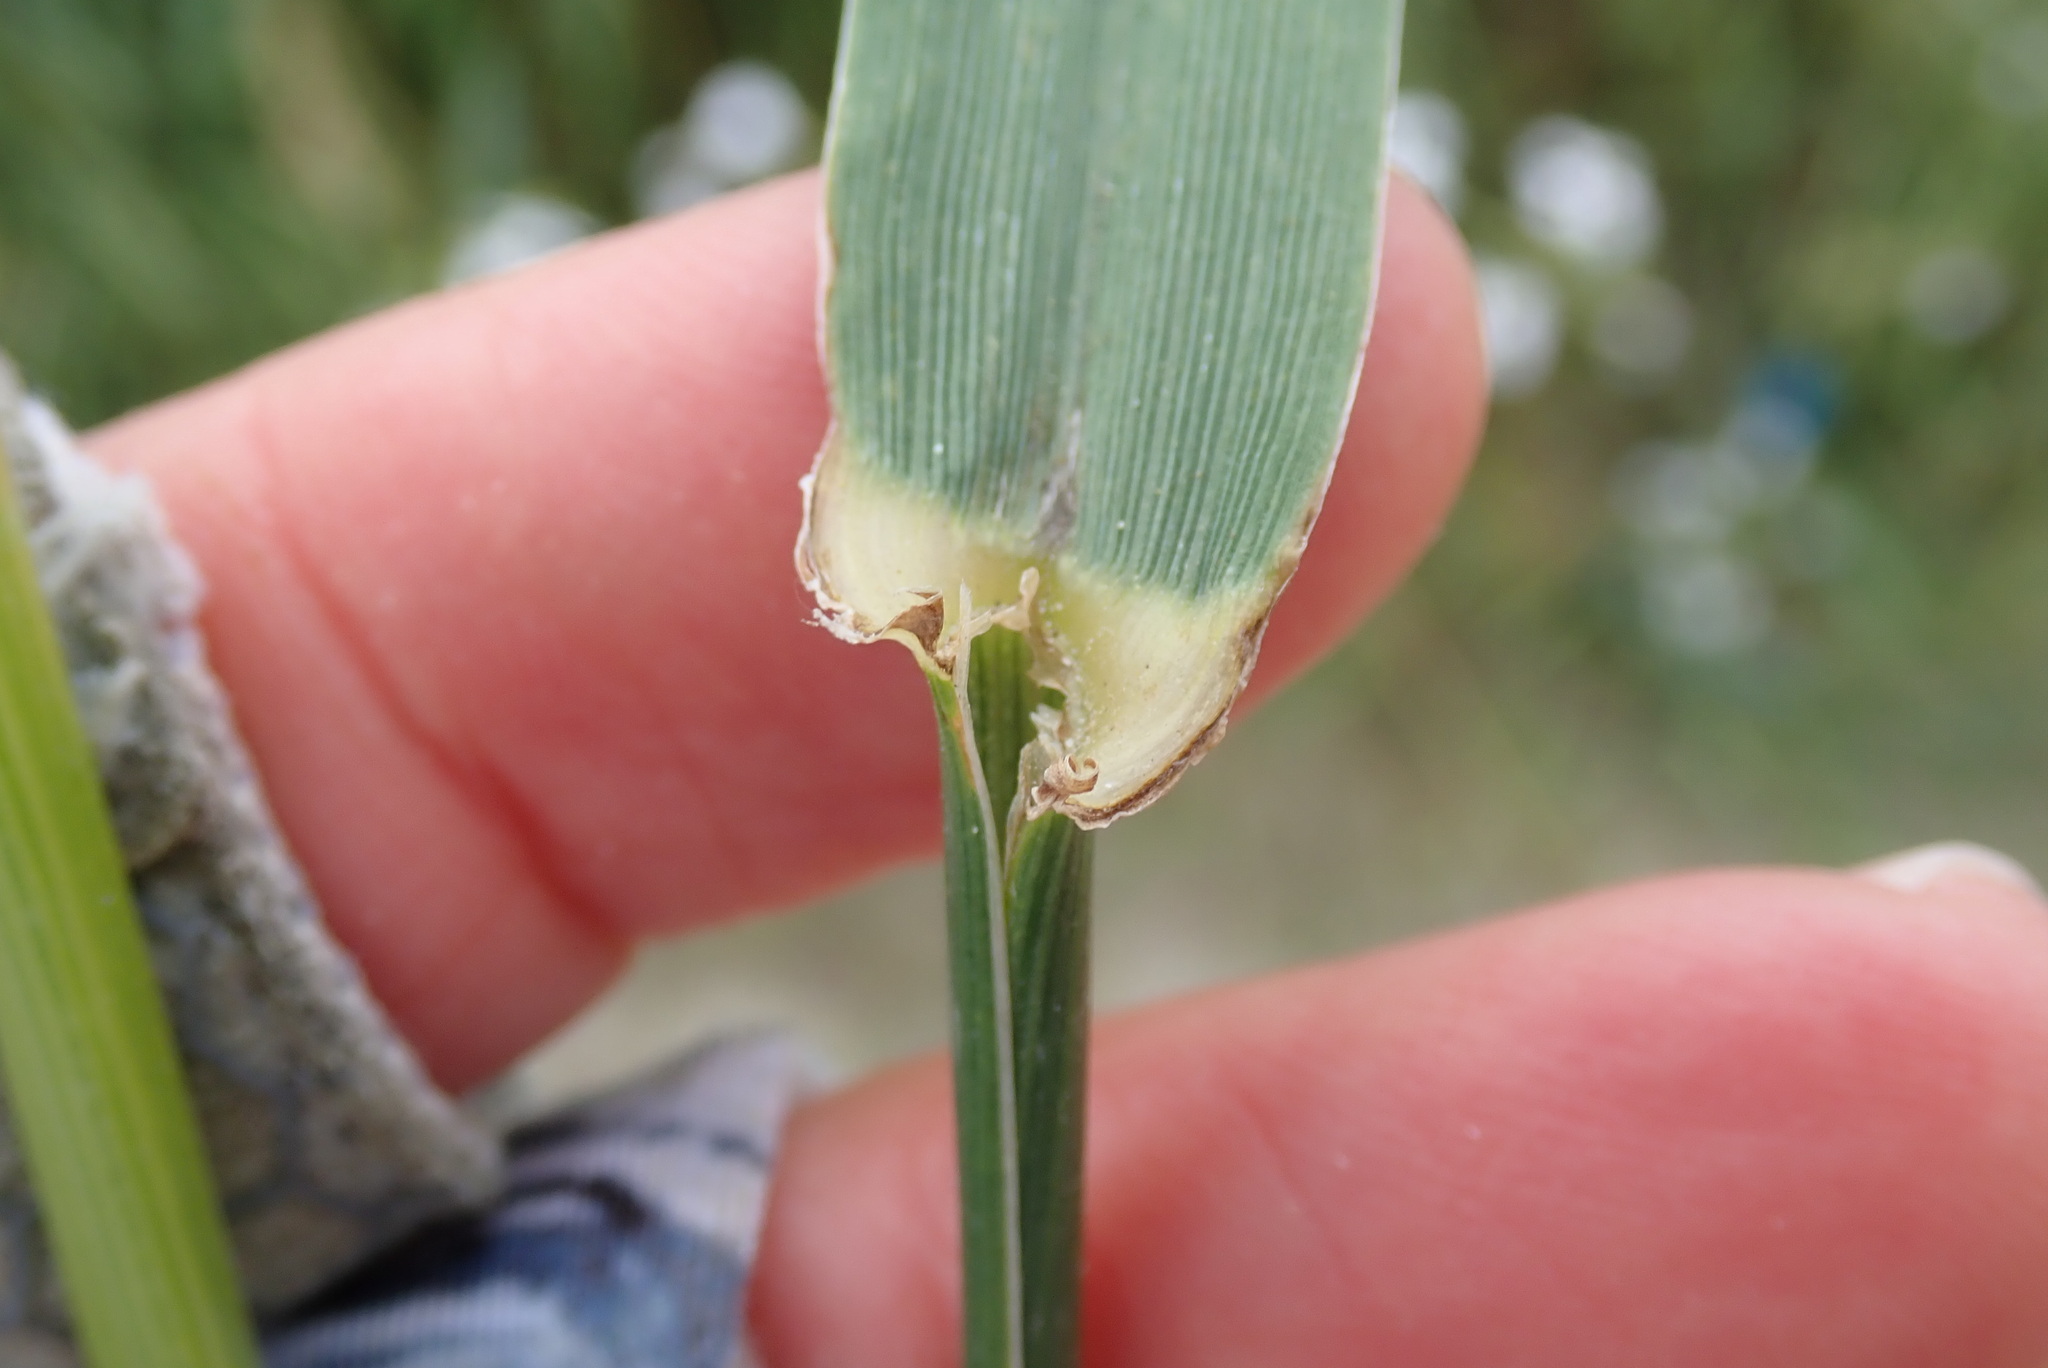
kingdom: Plantae
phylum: Tracheophyta
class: Liliopsida
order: Poales
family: Poaceae
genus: Lolium
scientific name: Lolium multiflorum
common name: Annual ryegrass
